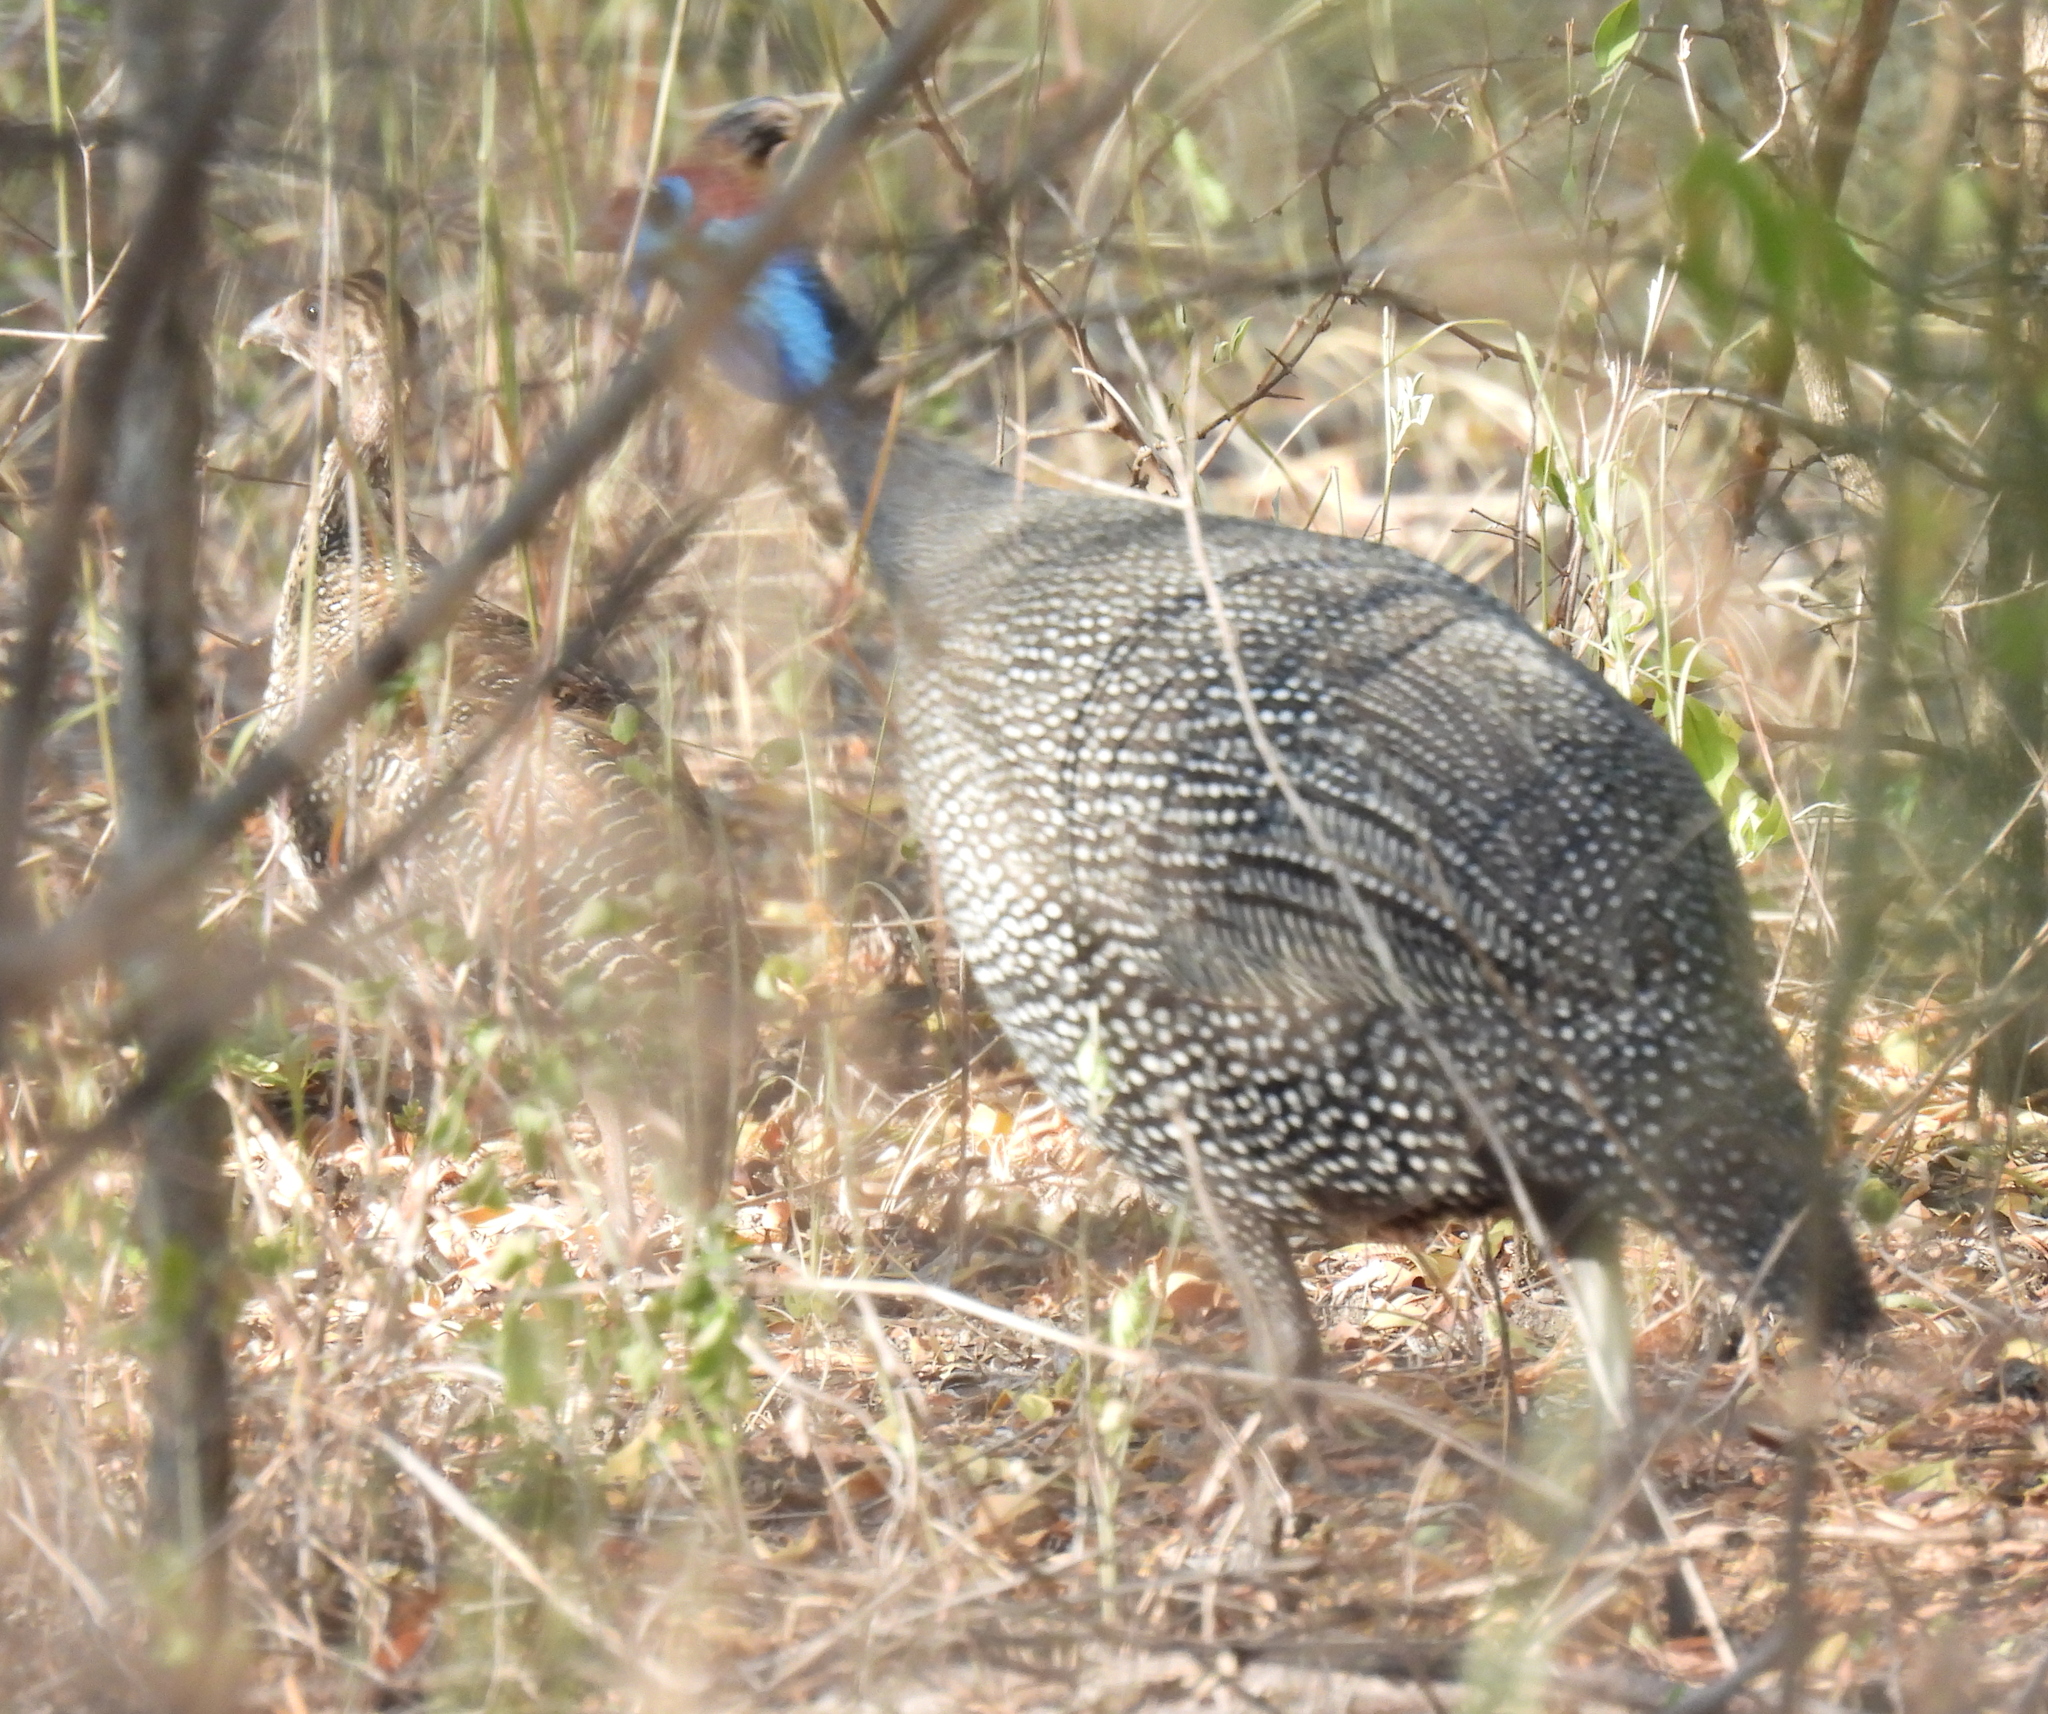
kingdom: Animalia
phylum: Chordata
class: Aves
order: Galliformes
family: Numididae
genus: Numida
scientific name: Numida meleagris
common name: Helmeted guineafowl
